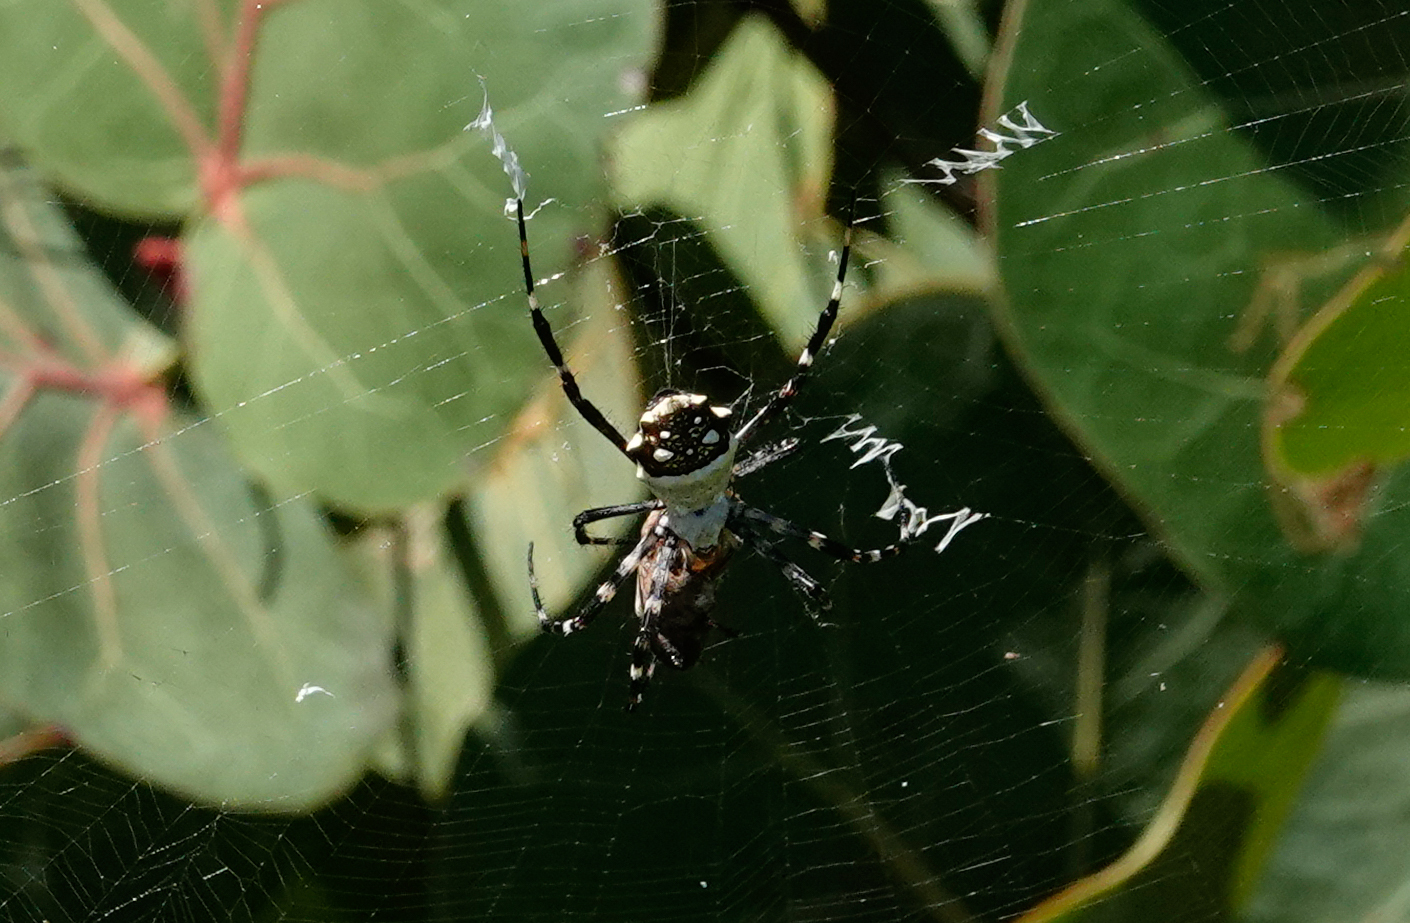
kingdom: Animalia
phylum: Arthropoda
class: Arachnida
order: Araneae
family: Araneidae
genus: Argiope
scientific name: Argiope argentata
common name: Orb weavers
